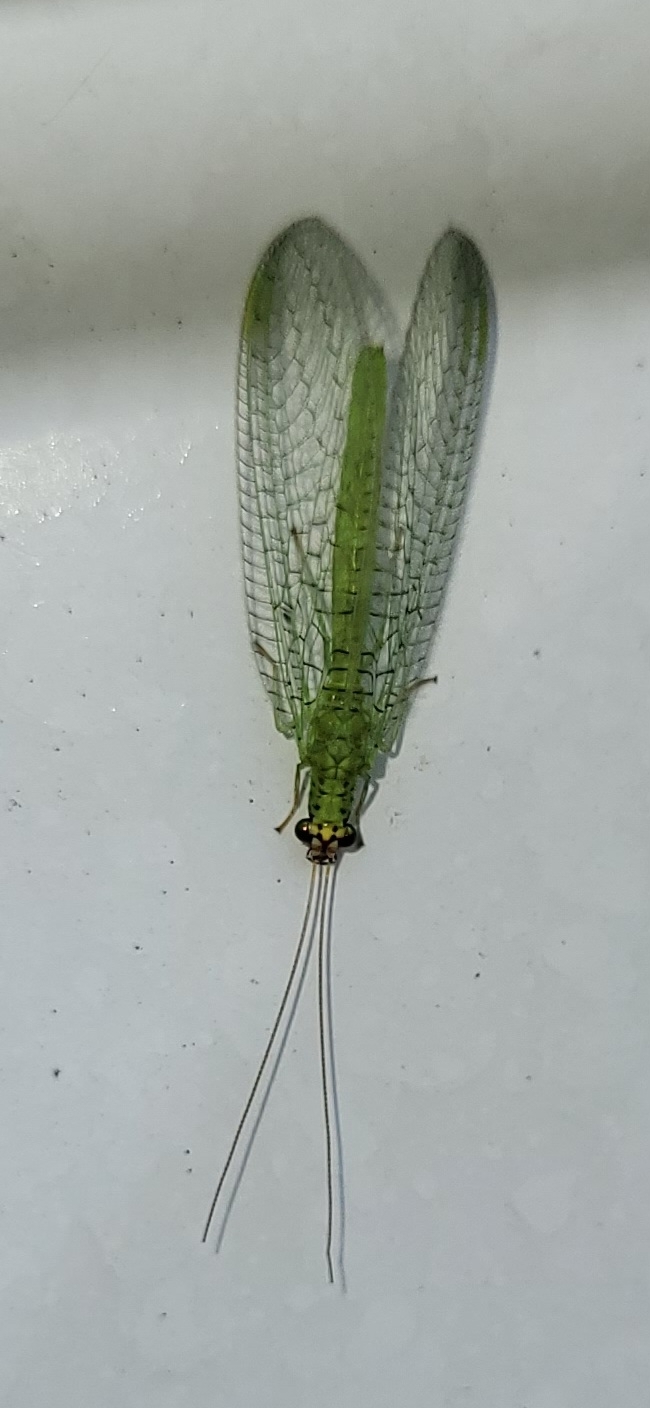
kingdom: Animalia
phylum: Arthropoda
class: Insecta
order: Neuroptera
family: Chrysopidae
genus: Chrysopa
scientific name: Chrysopa oculata
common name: Golden-eyed lacewing
